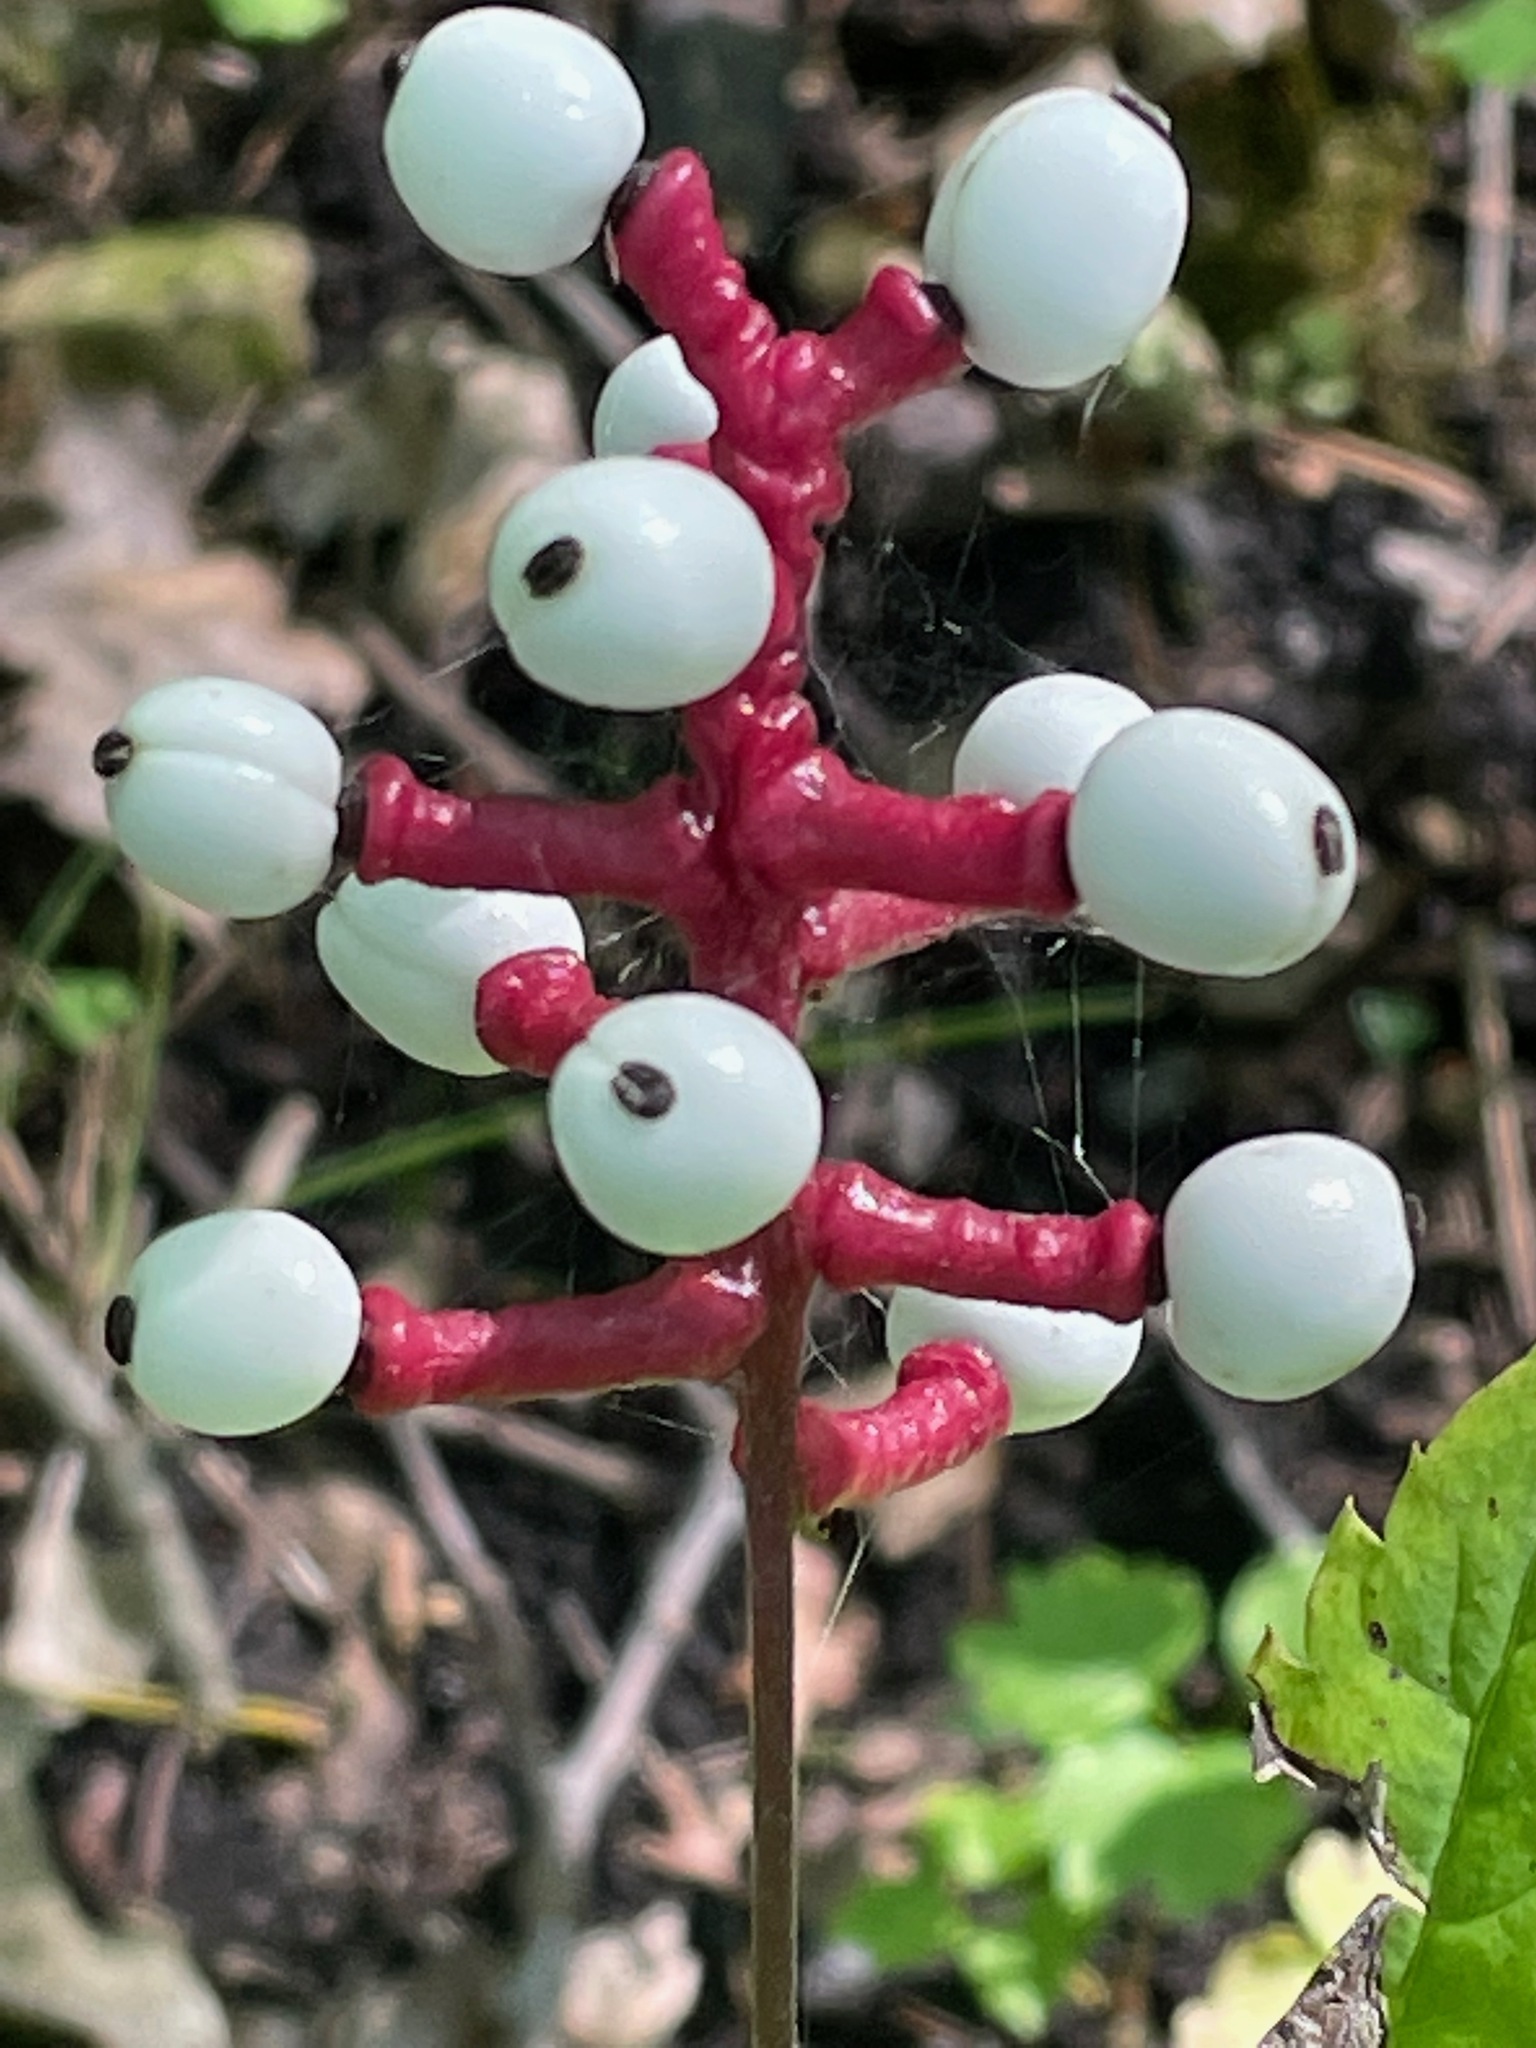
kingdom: Plantae
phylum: Tracheophyta
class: Magnoliopsida
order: Ranunculales
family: Ranunculaceae
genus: Actaea
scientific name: Actaea pachypoda
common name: Doll's-eyes
